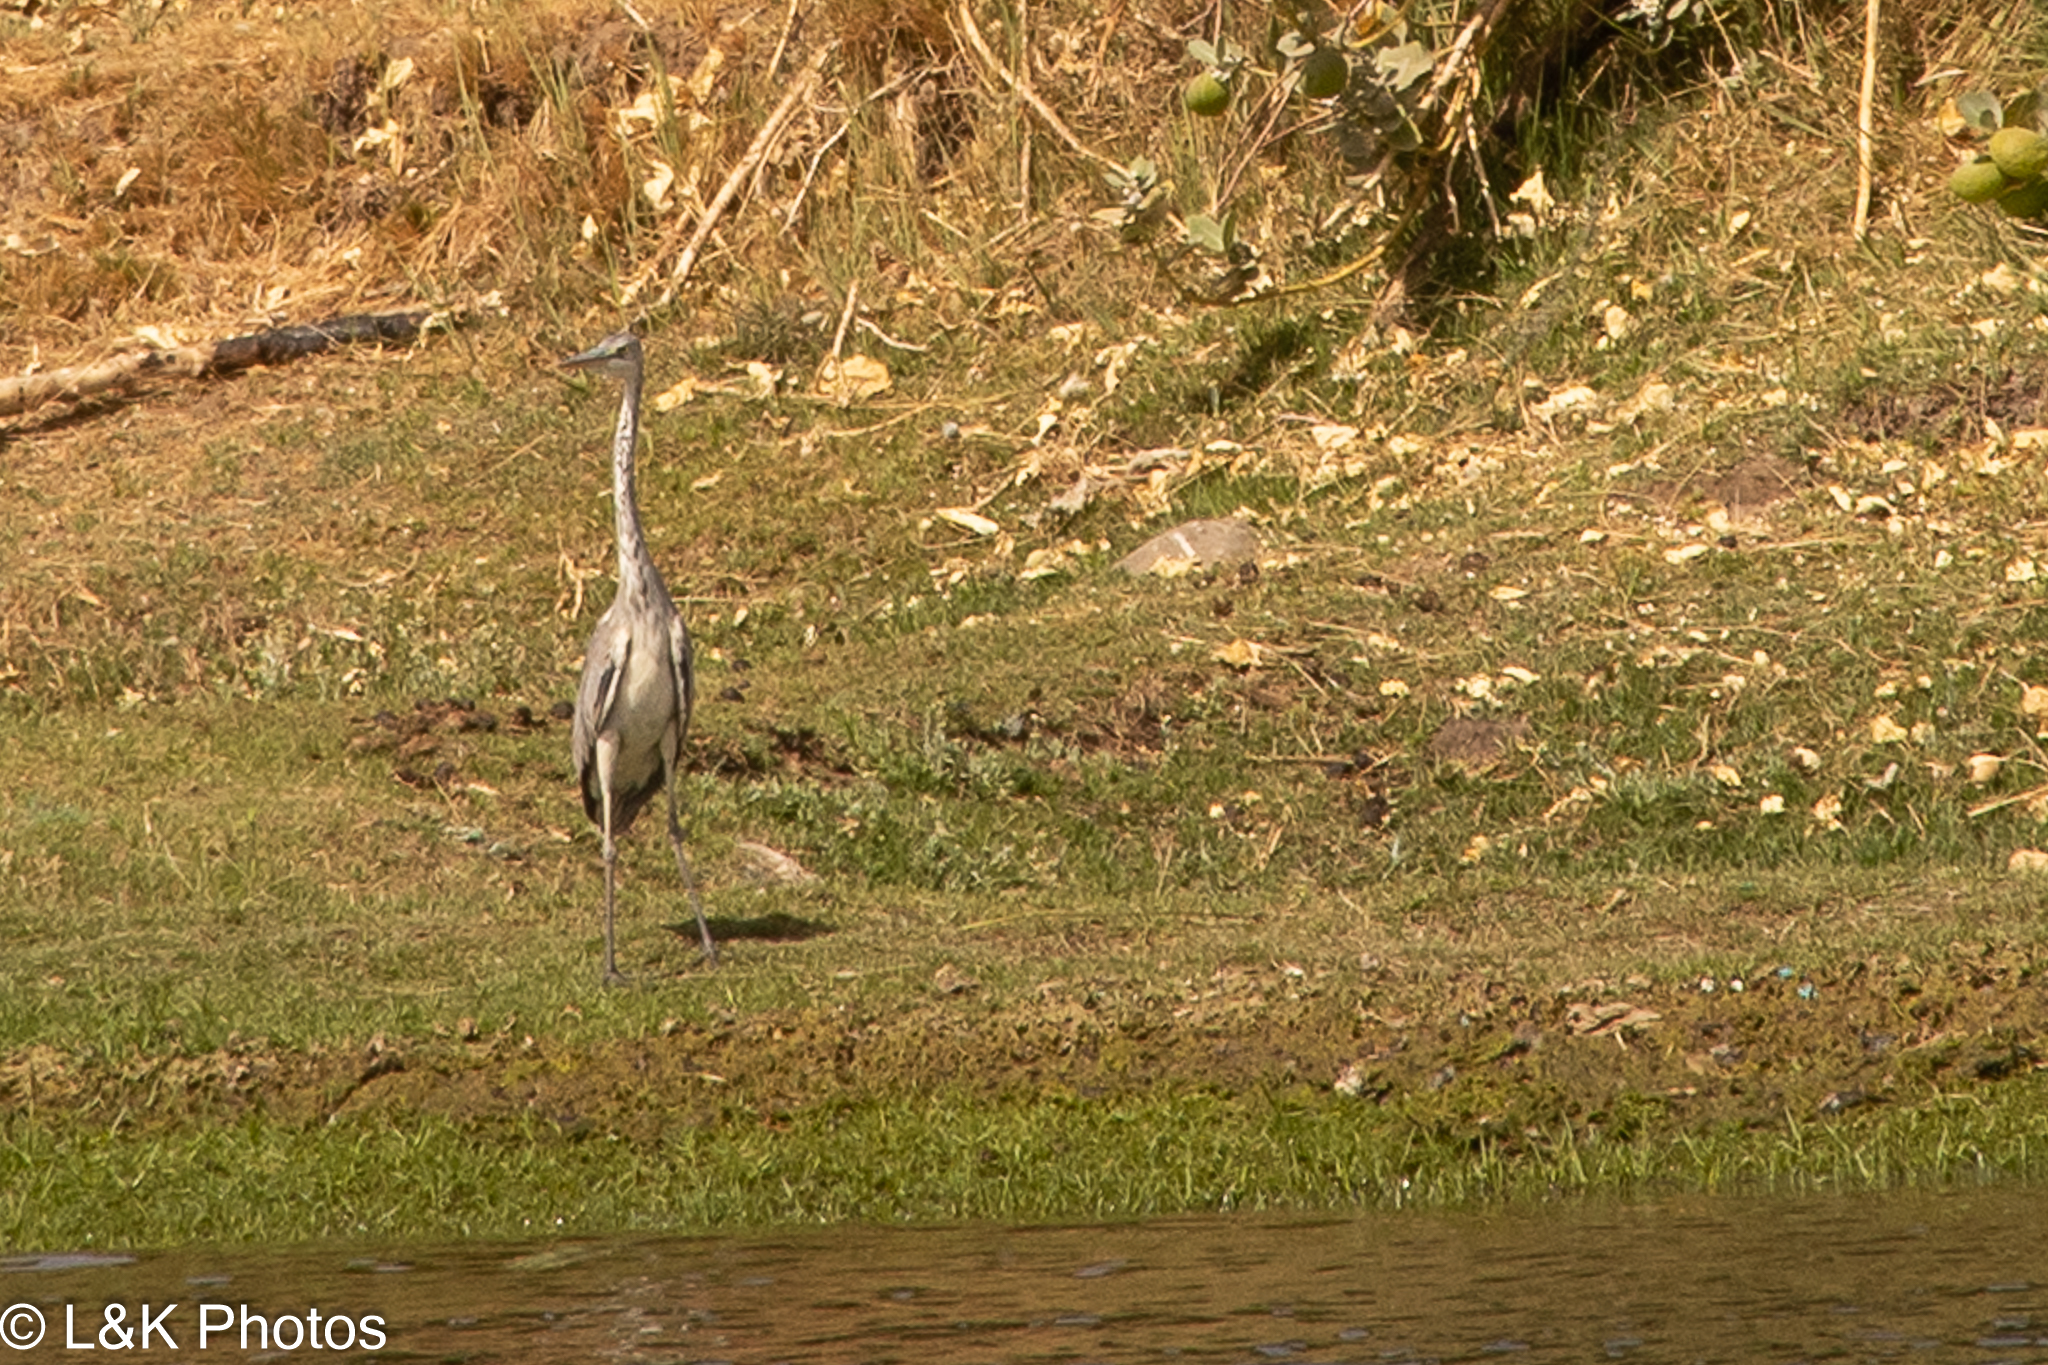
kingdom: Animalia
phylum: Chordata
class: Aves
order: Pelecaniformes
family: Ardeidae
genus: Ardea
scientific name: Ardea cinerea
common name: Grey heron
